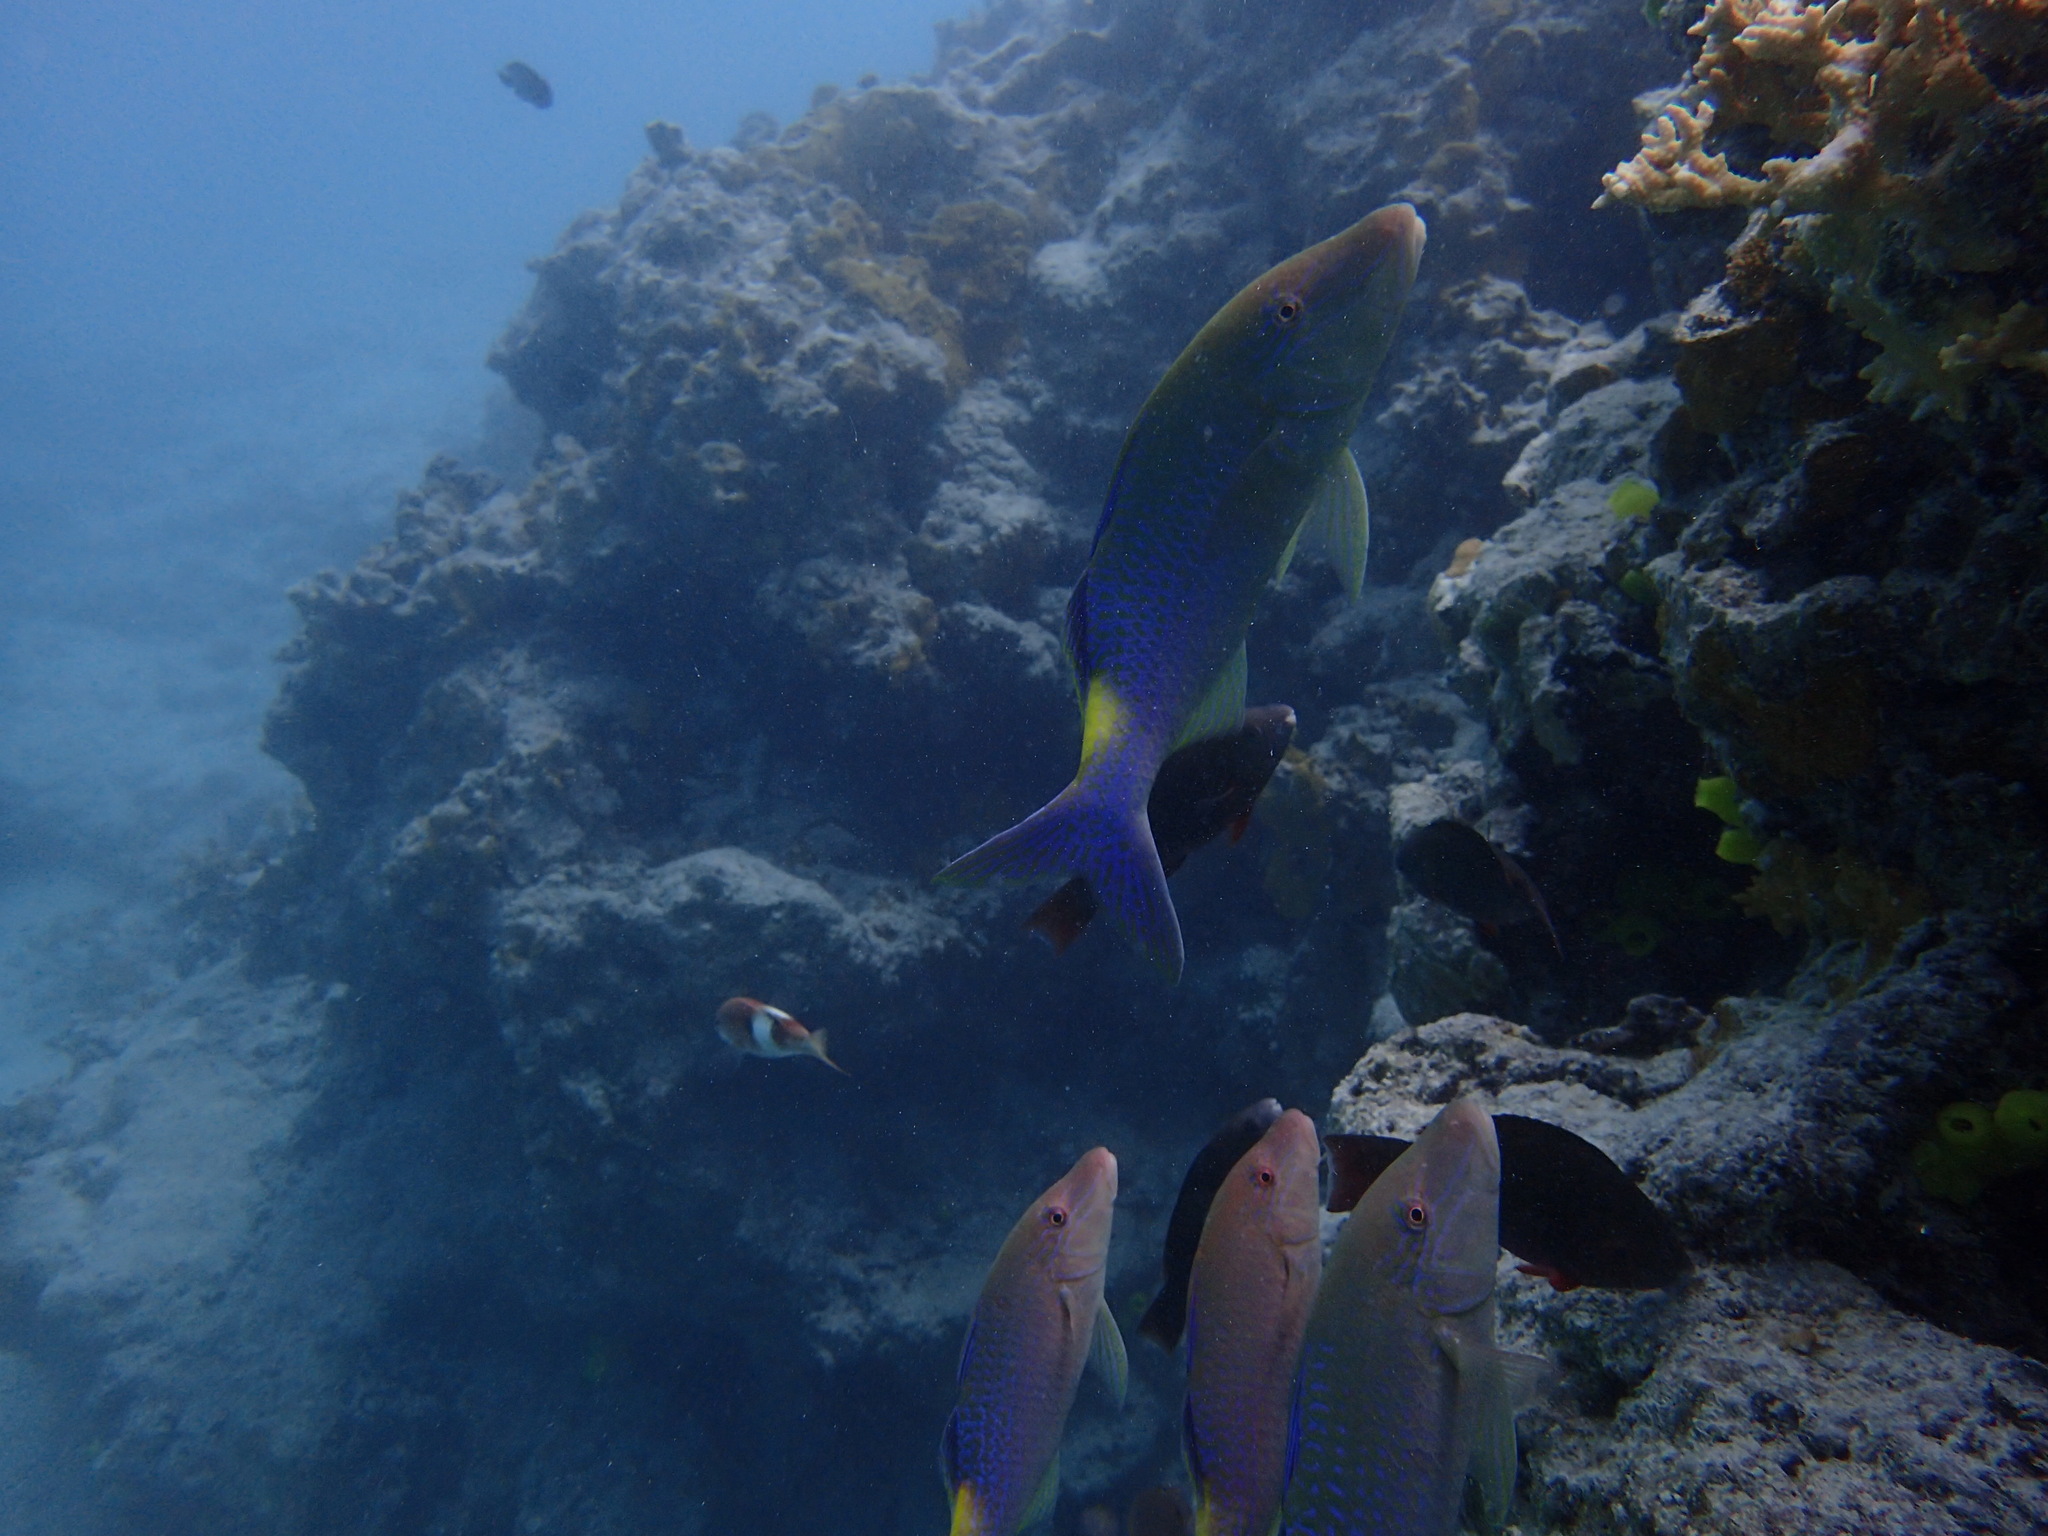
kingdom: Animalia
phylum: Chordata
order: Perciformes
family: Mullidae
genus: Parupeneus
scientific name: Parupeneus cyclostomus
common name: Goldsaddle goatfish
